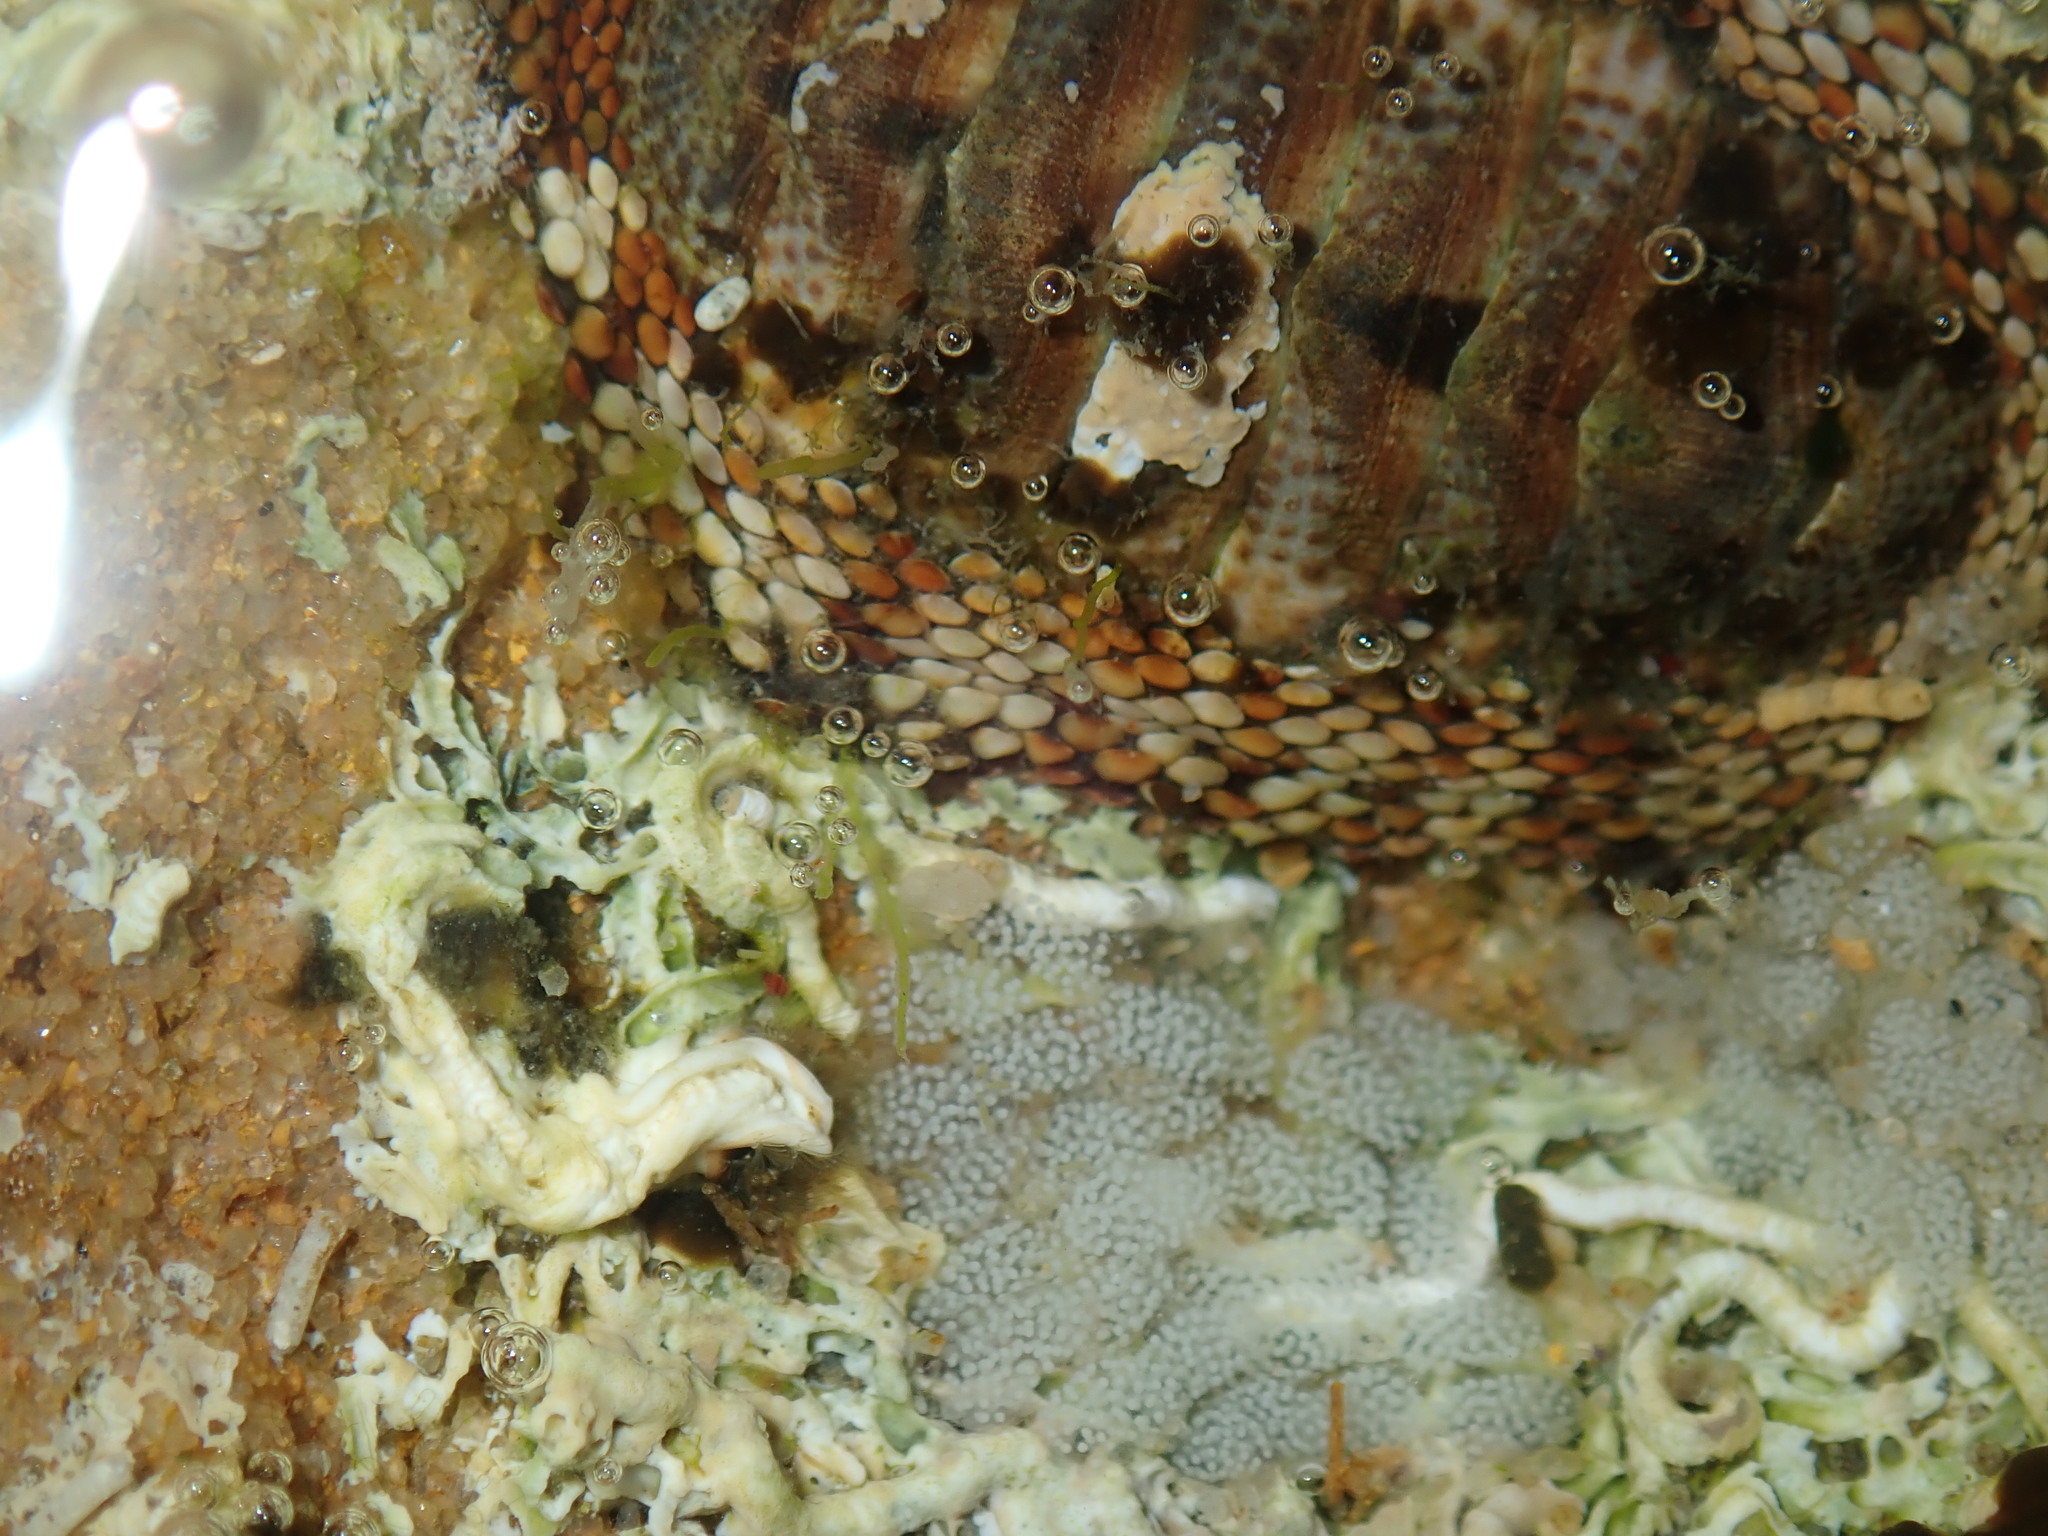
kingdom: Animalia
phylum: Mollusca
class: Polyplacophora
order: Chitonida
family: Chitonidae
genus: Sypharochiton
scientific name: Sypharochiton pelliserpentis
